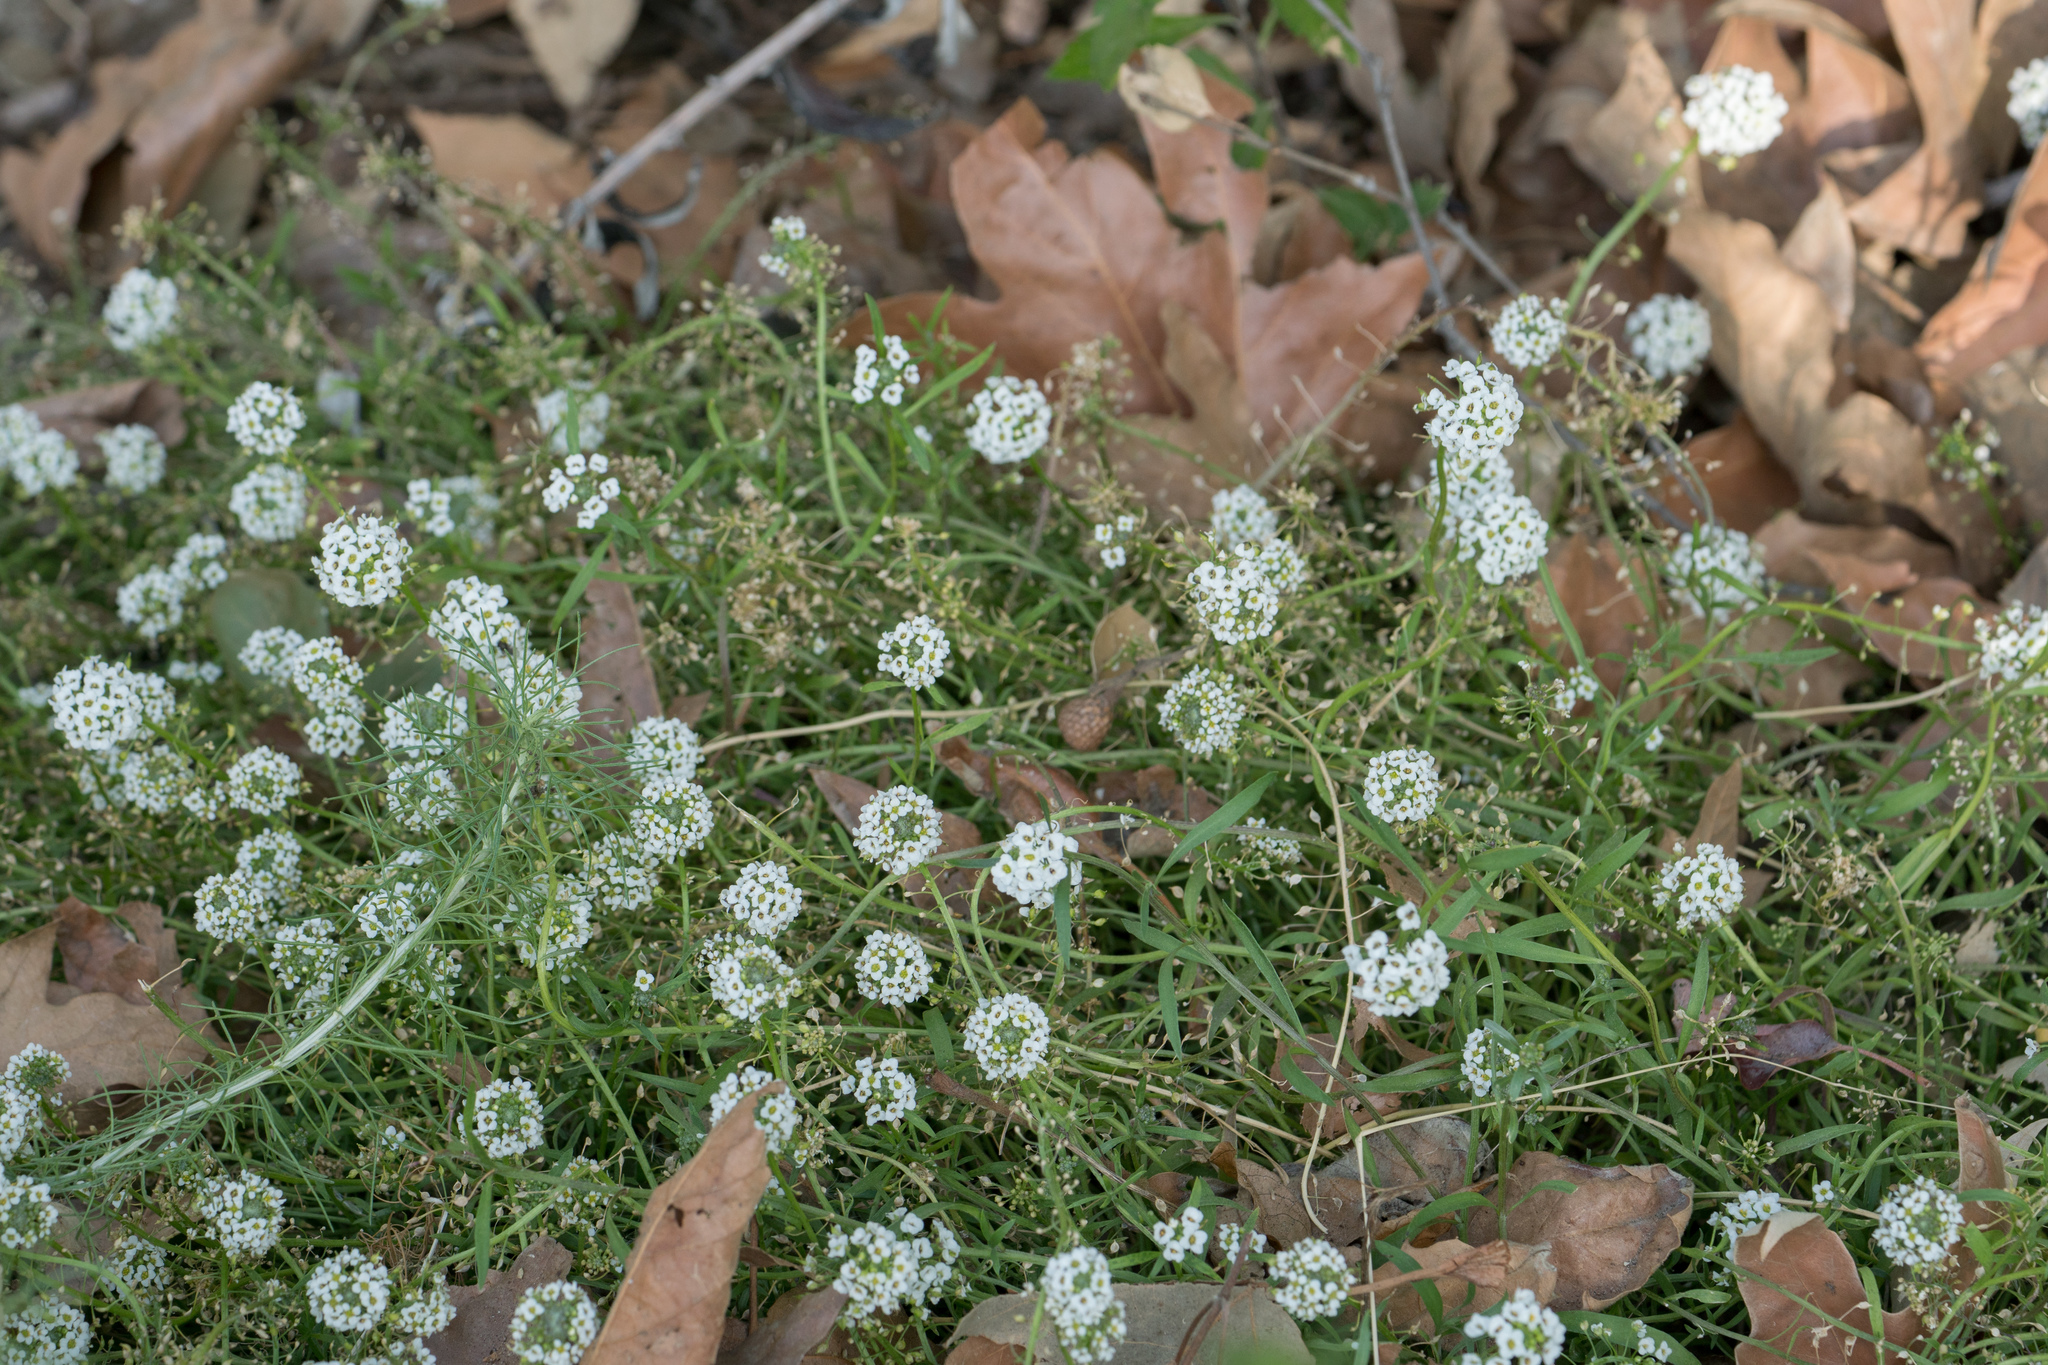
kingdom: Plantae
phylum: Tracheophyta
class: Magnoliopsida
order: Brassicales
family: Brassicaceae
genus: Lobularia
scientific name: Lobularia maritima
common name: Sweet alison
